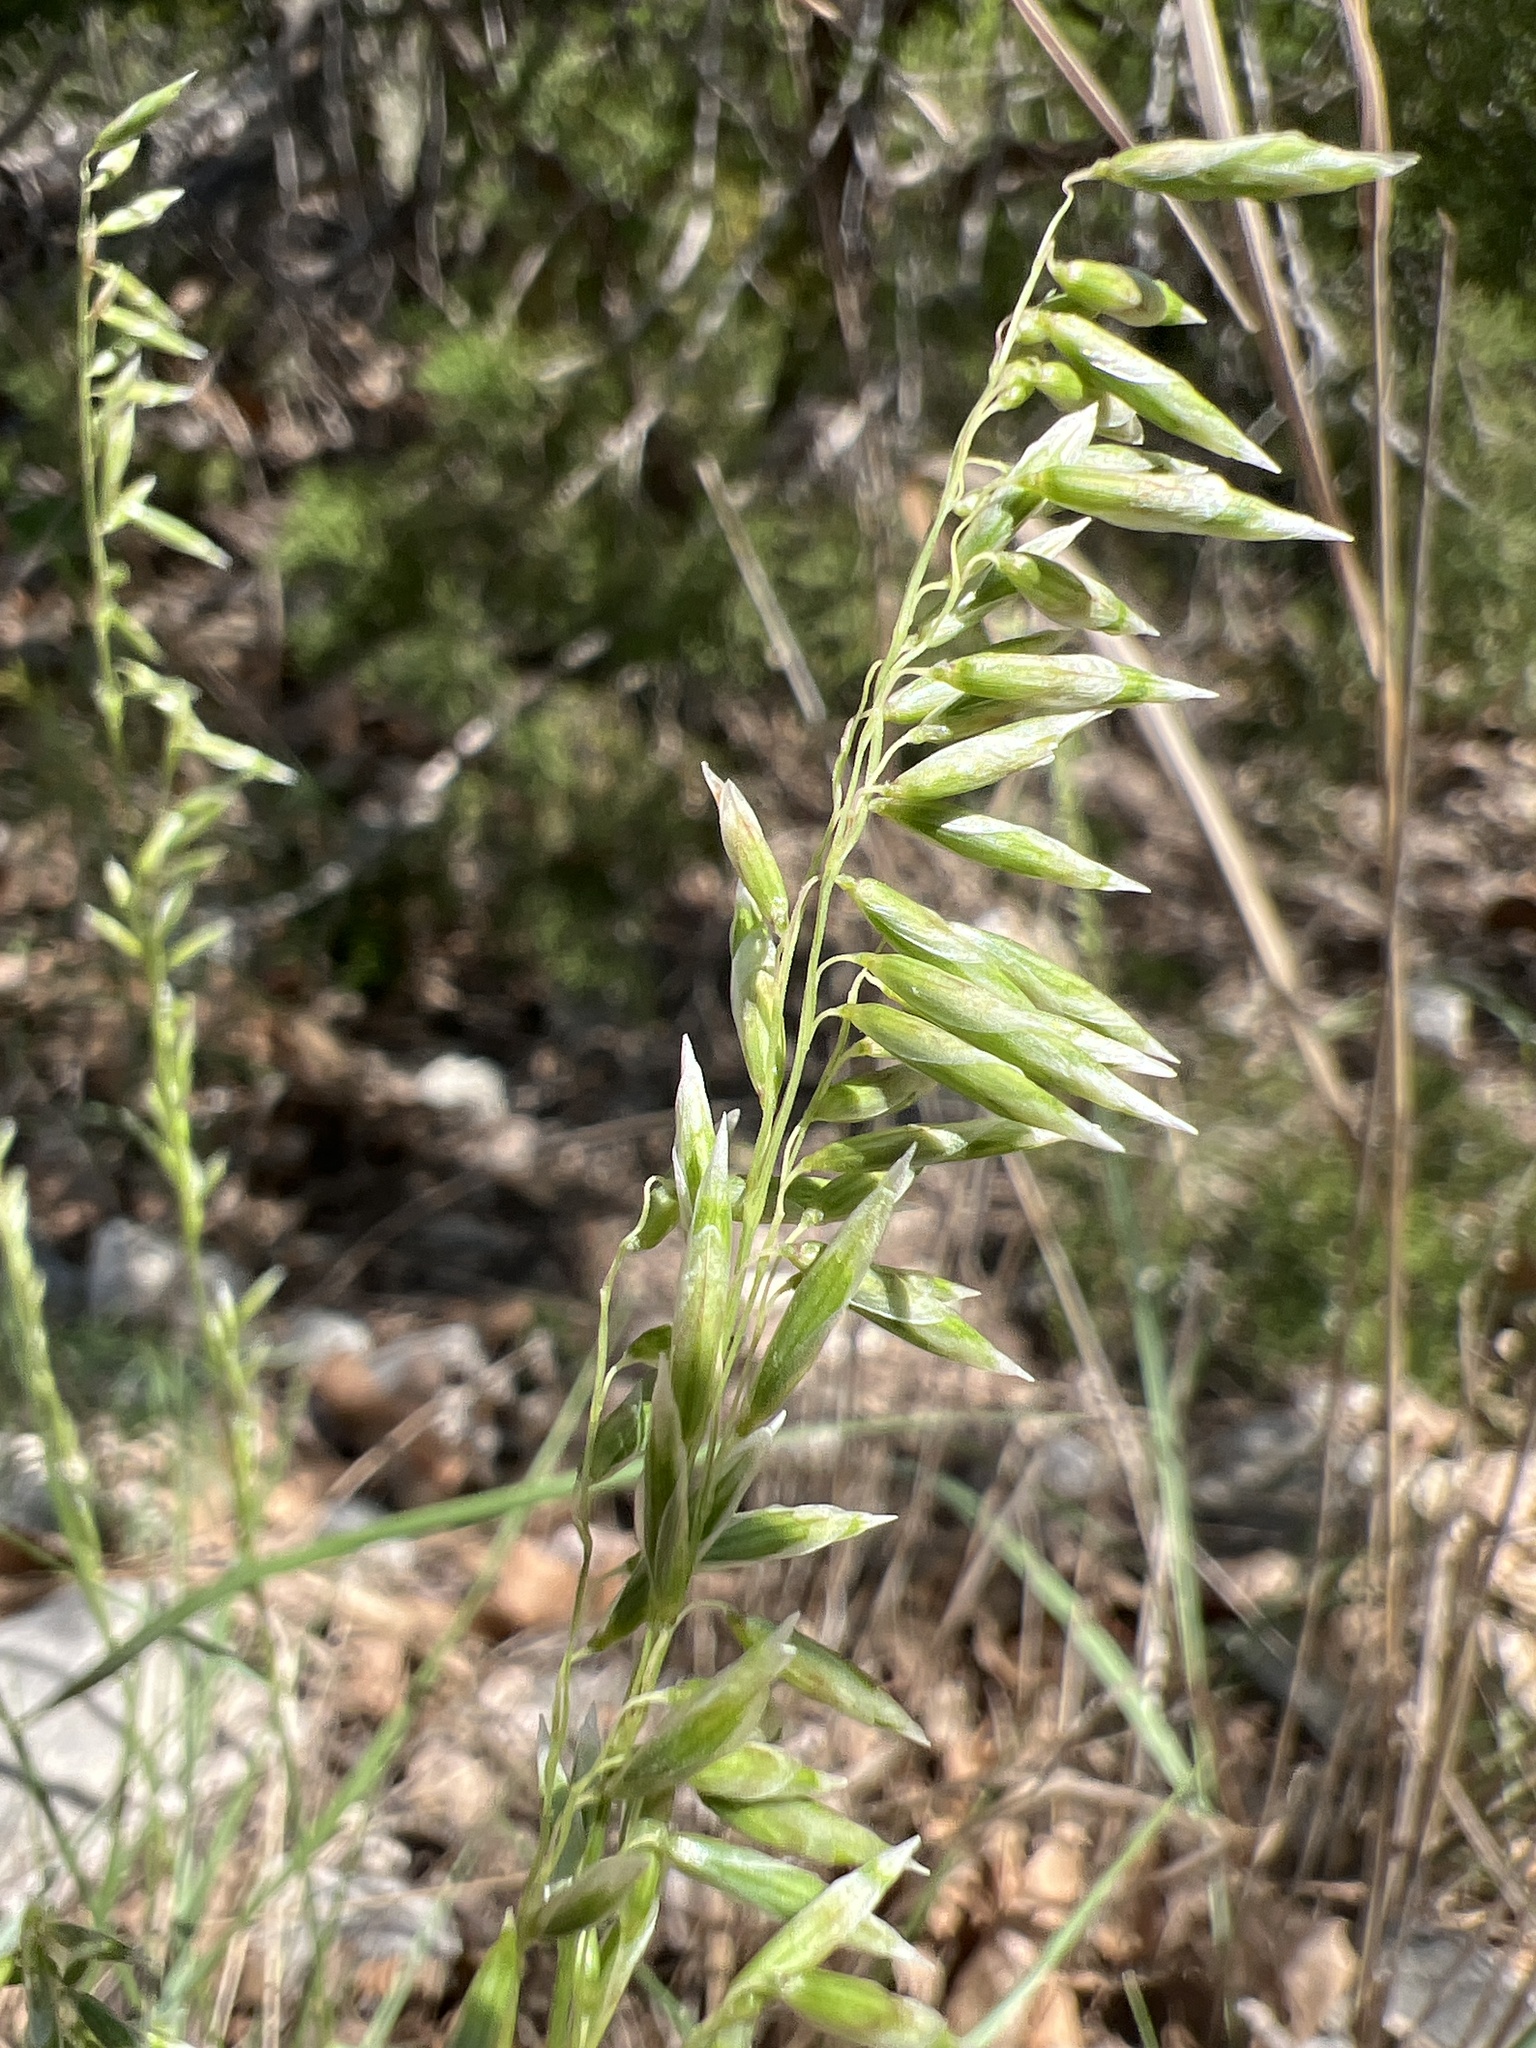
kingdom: Plantae
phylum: Tracheophyta
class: Liliopsida
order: Poales
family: Poaceae
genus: Melica
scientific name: Melica nitens
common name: Three-flower melic
